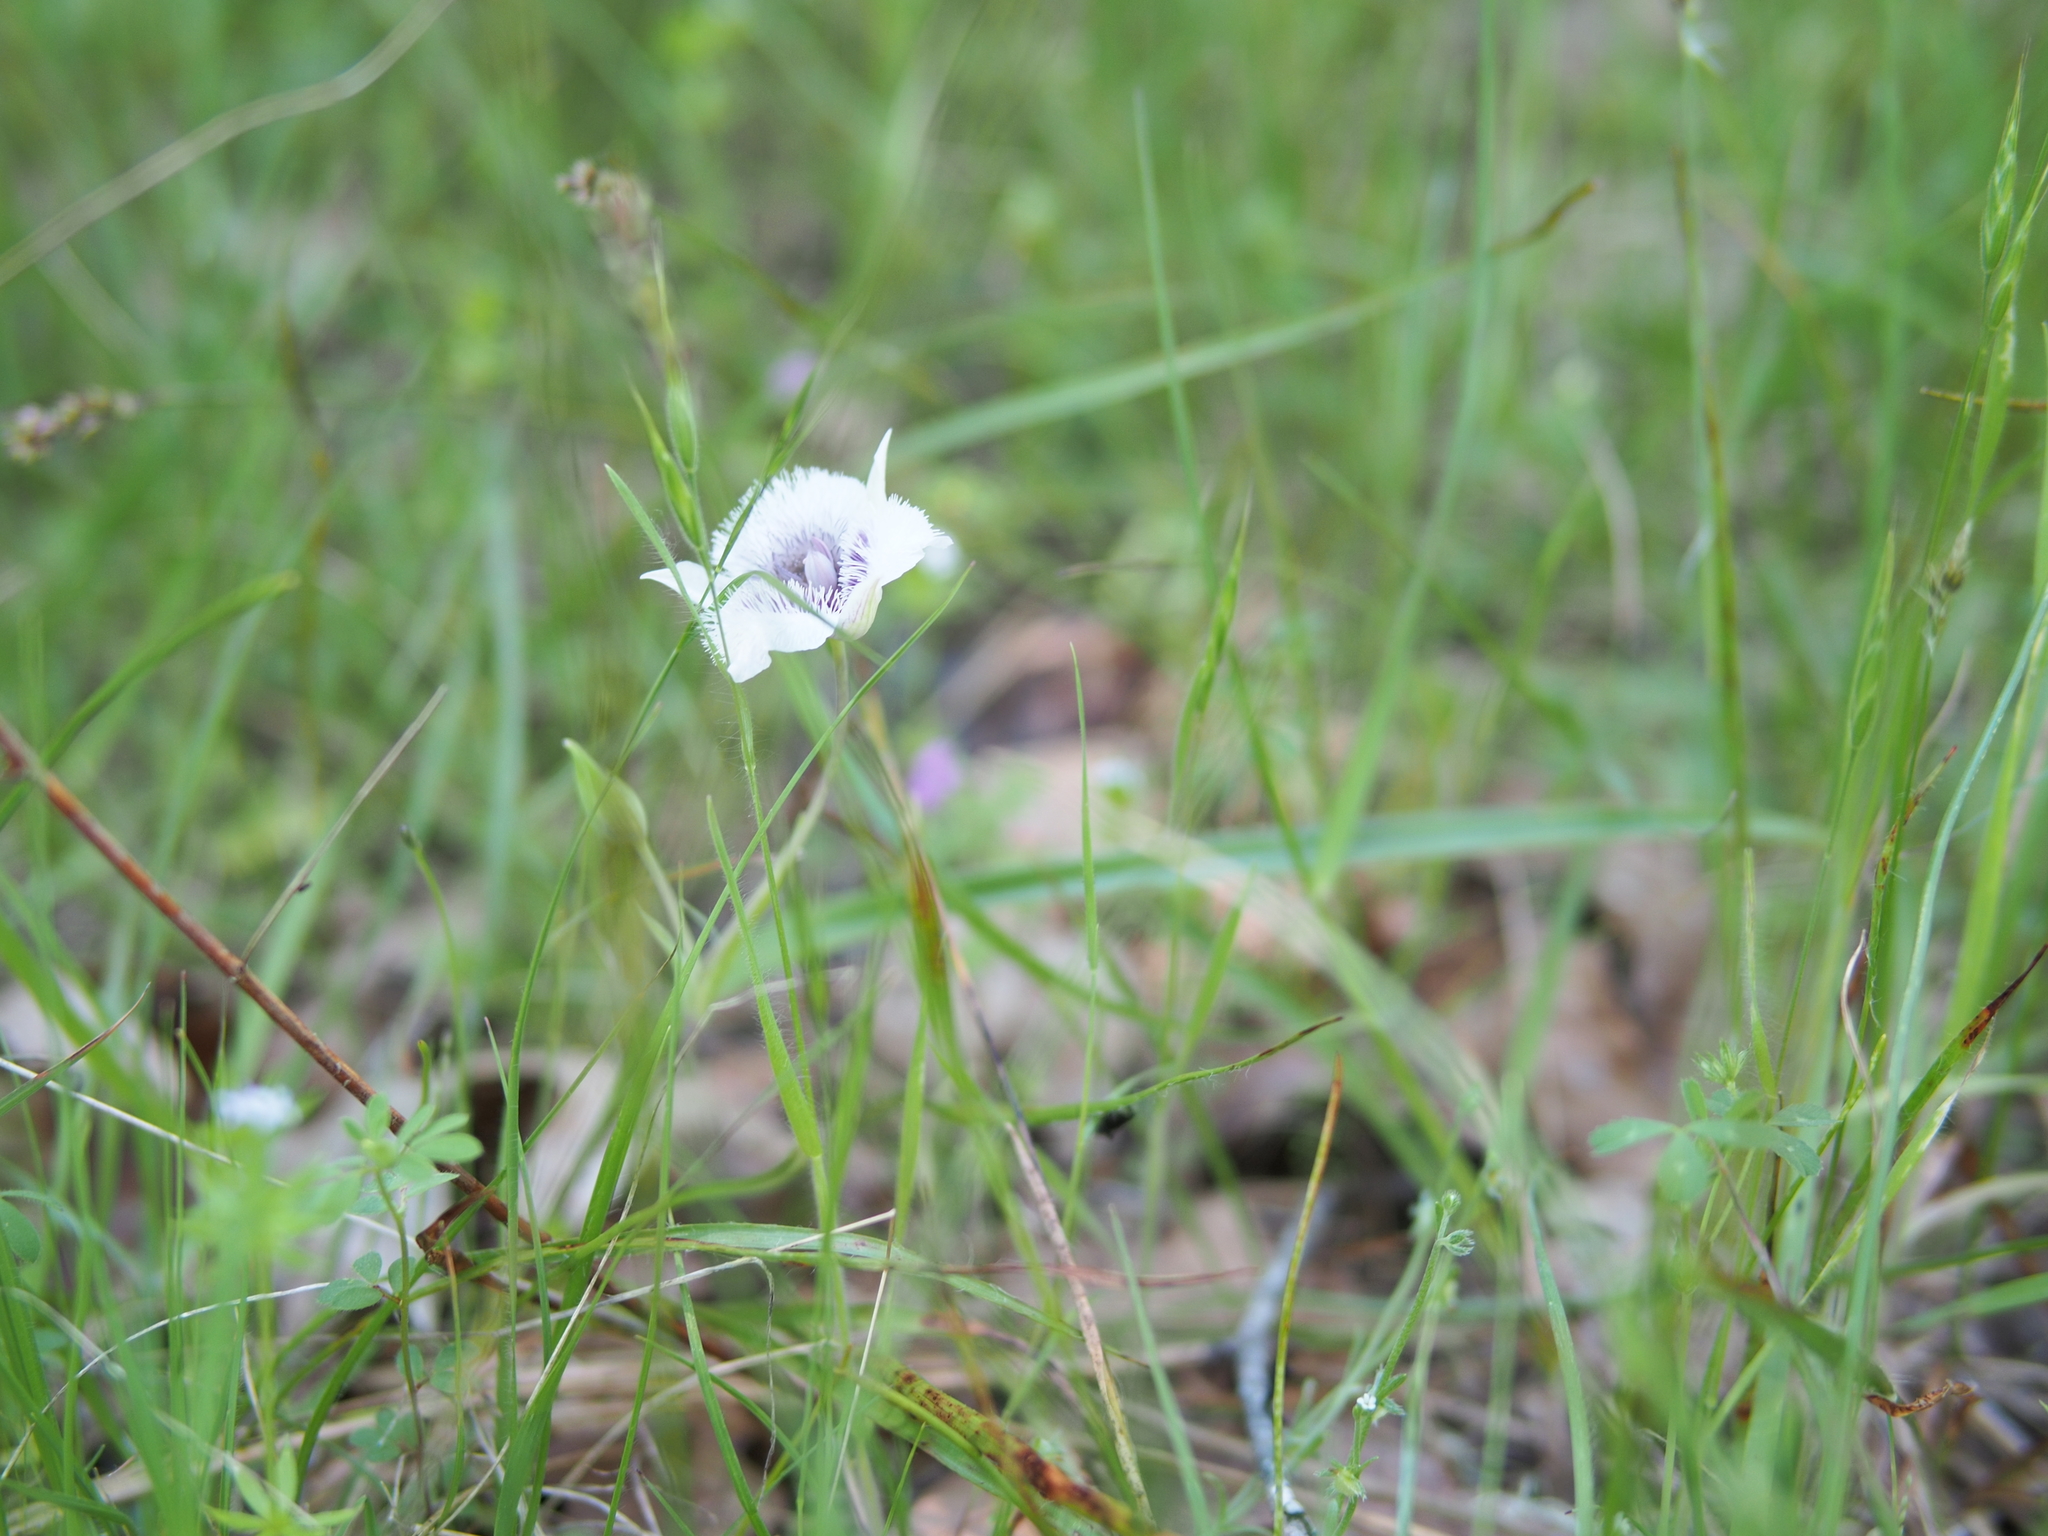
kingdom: Plantae
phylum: Tracheophyta
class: Liliopsida
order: Liliales
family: Liliaceae
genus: Calochortus
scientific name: Calochortus tolmiei
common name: Pussy-ears
